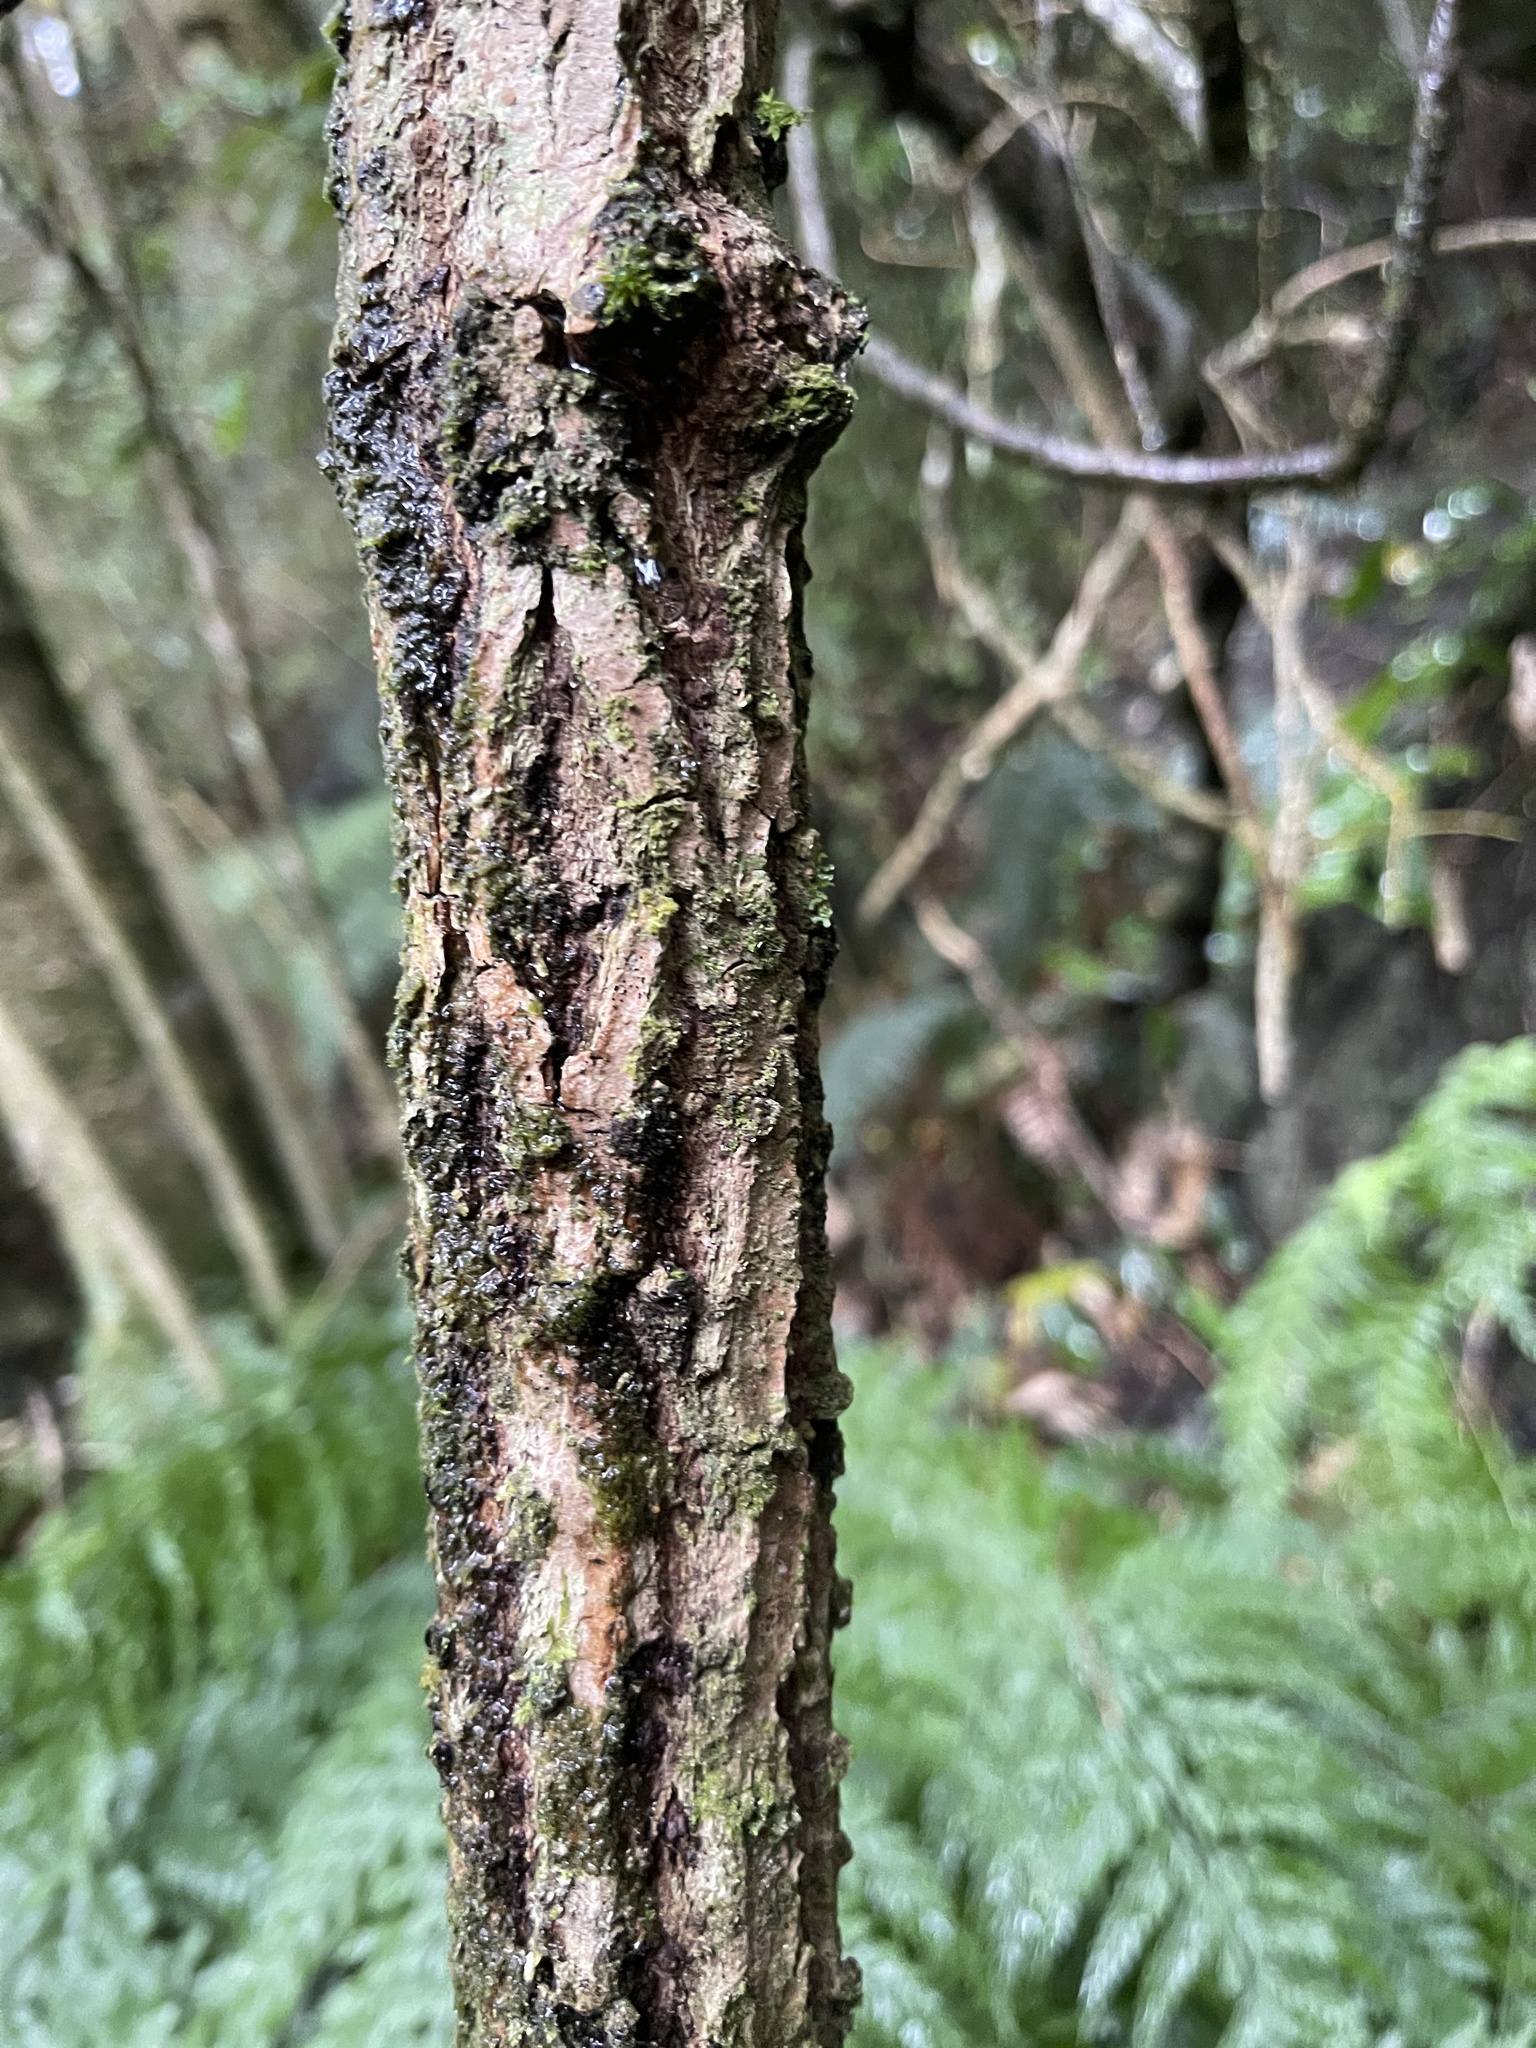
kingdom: Plantae
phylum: Tracheophyta
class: Magnoliopsida
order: Dipsacales
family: Viburnaceae
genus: Sambucus
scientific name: Sambucus nigra
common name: Elder
